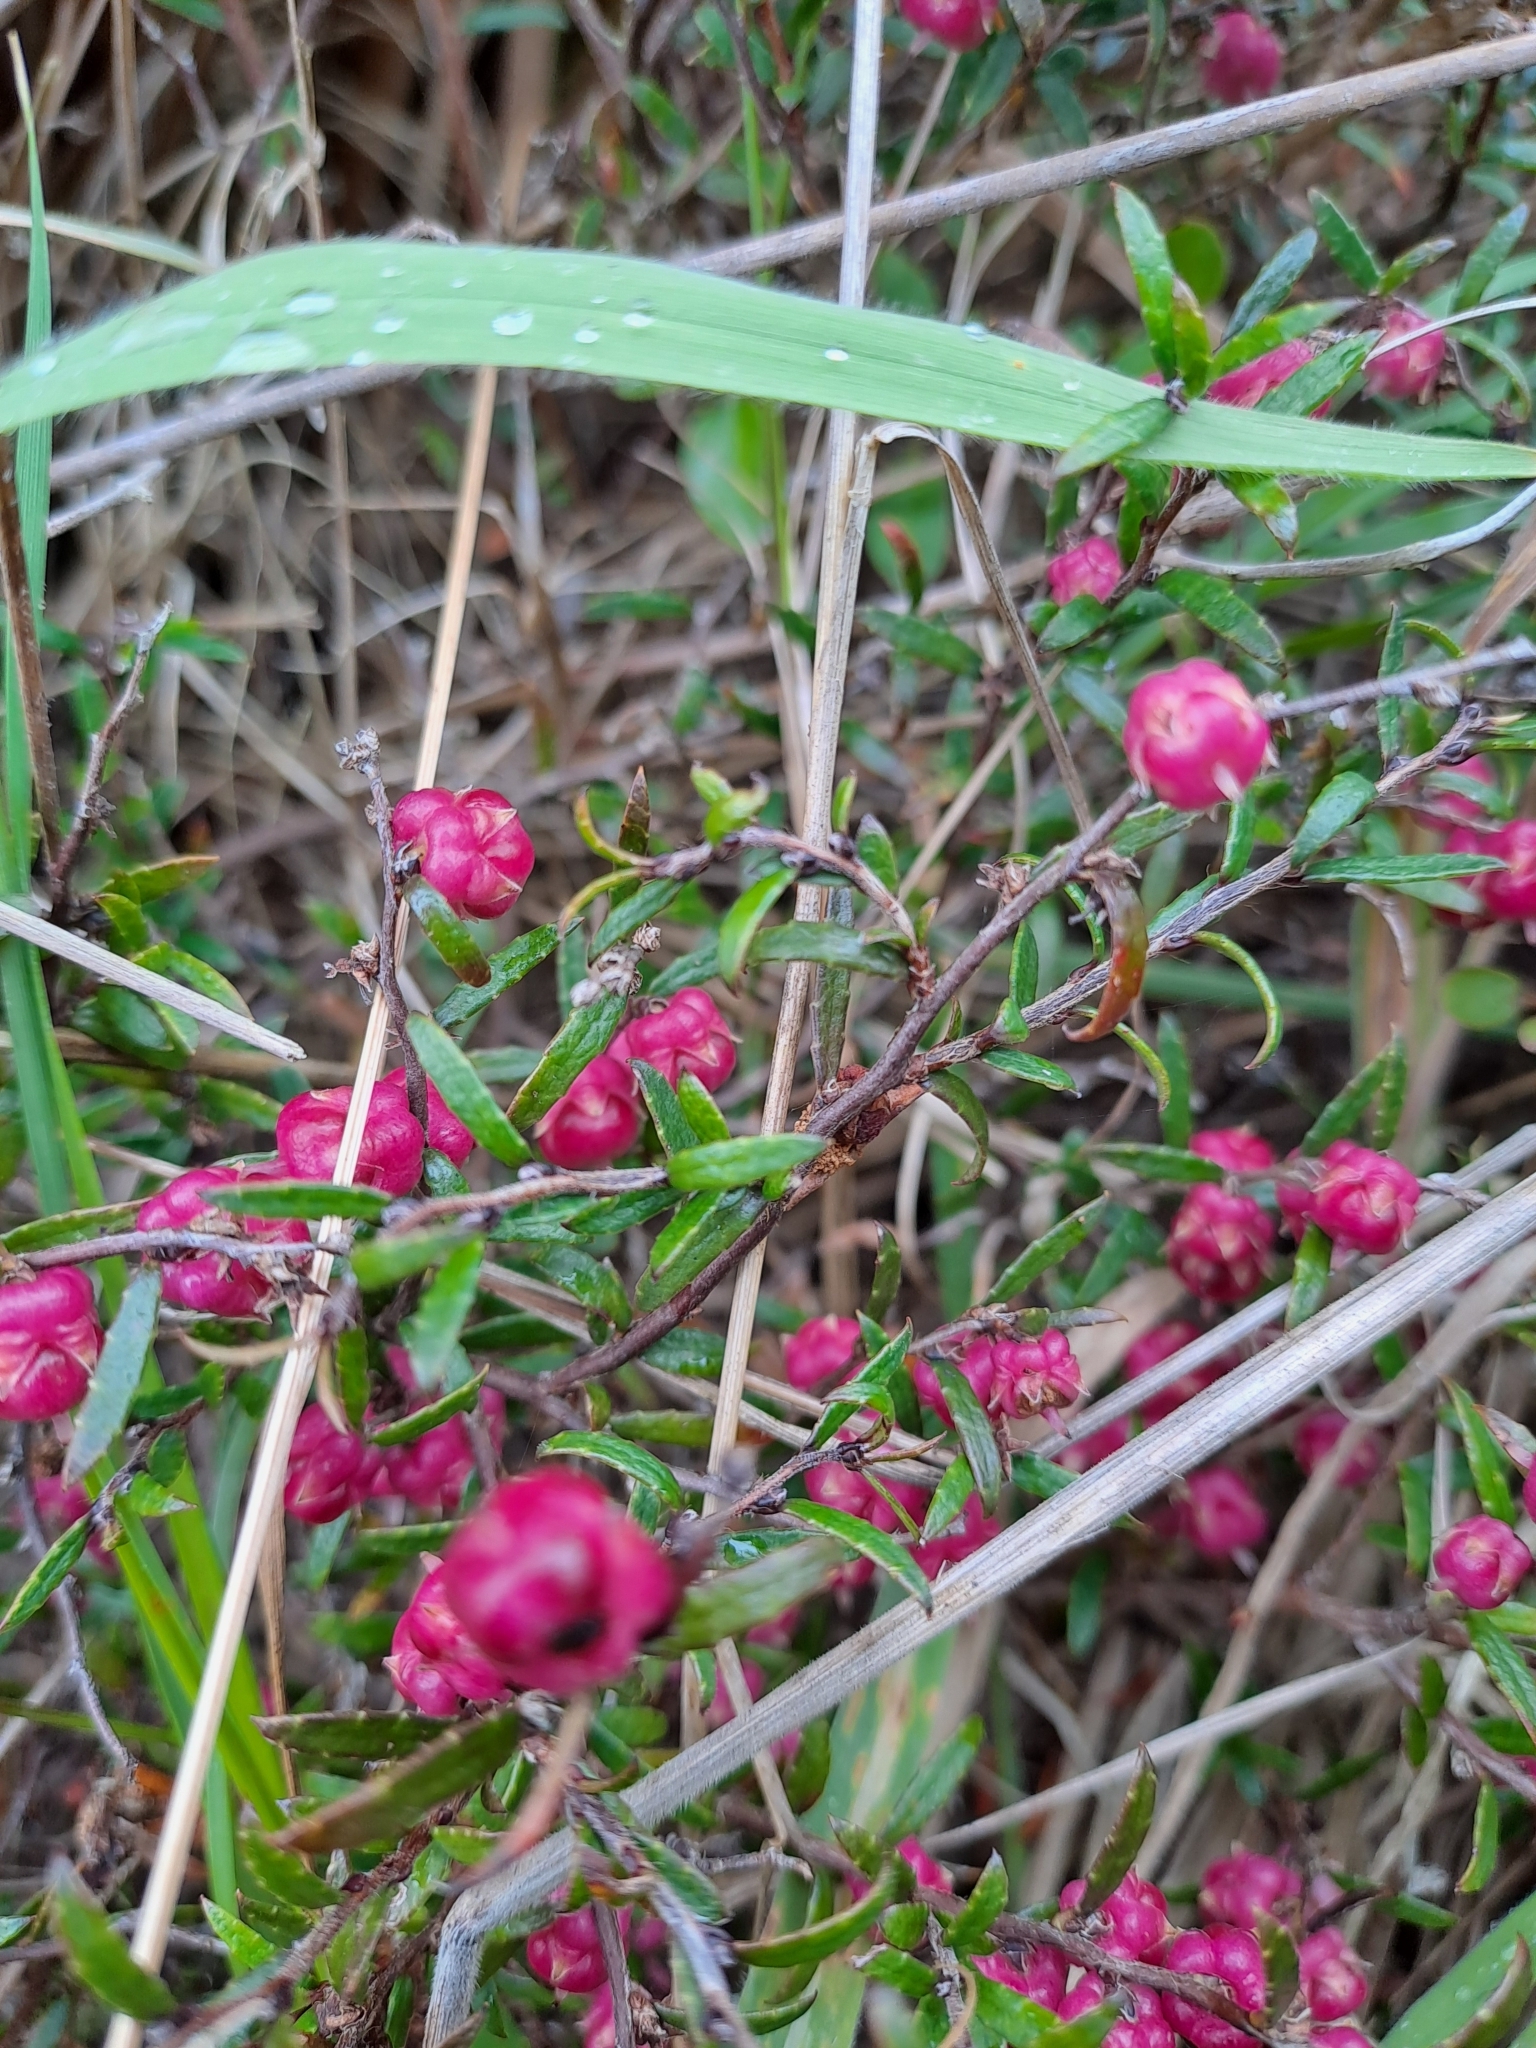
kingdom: Plantae
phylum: Tracheophyta
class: Magnoliopsida
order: Ericales
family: Ericaceae
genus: Gaultheria
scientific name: Gaultheria macrostigma
